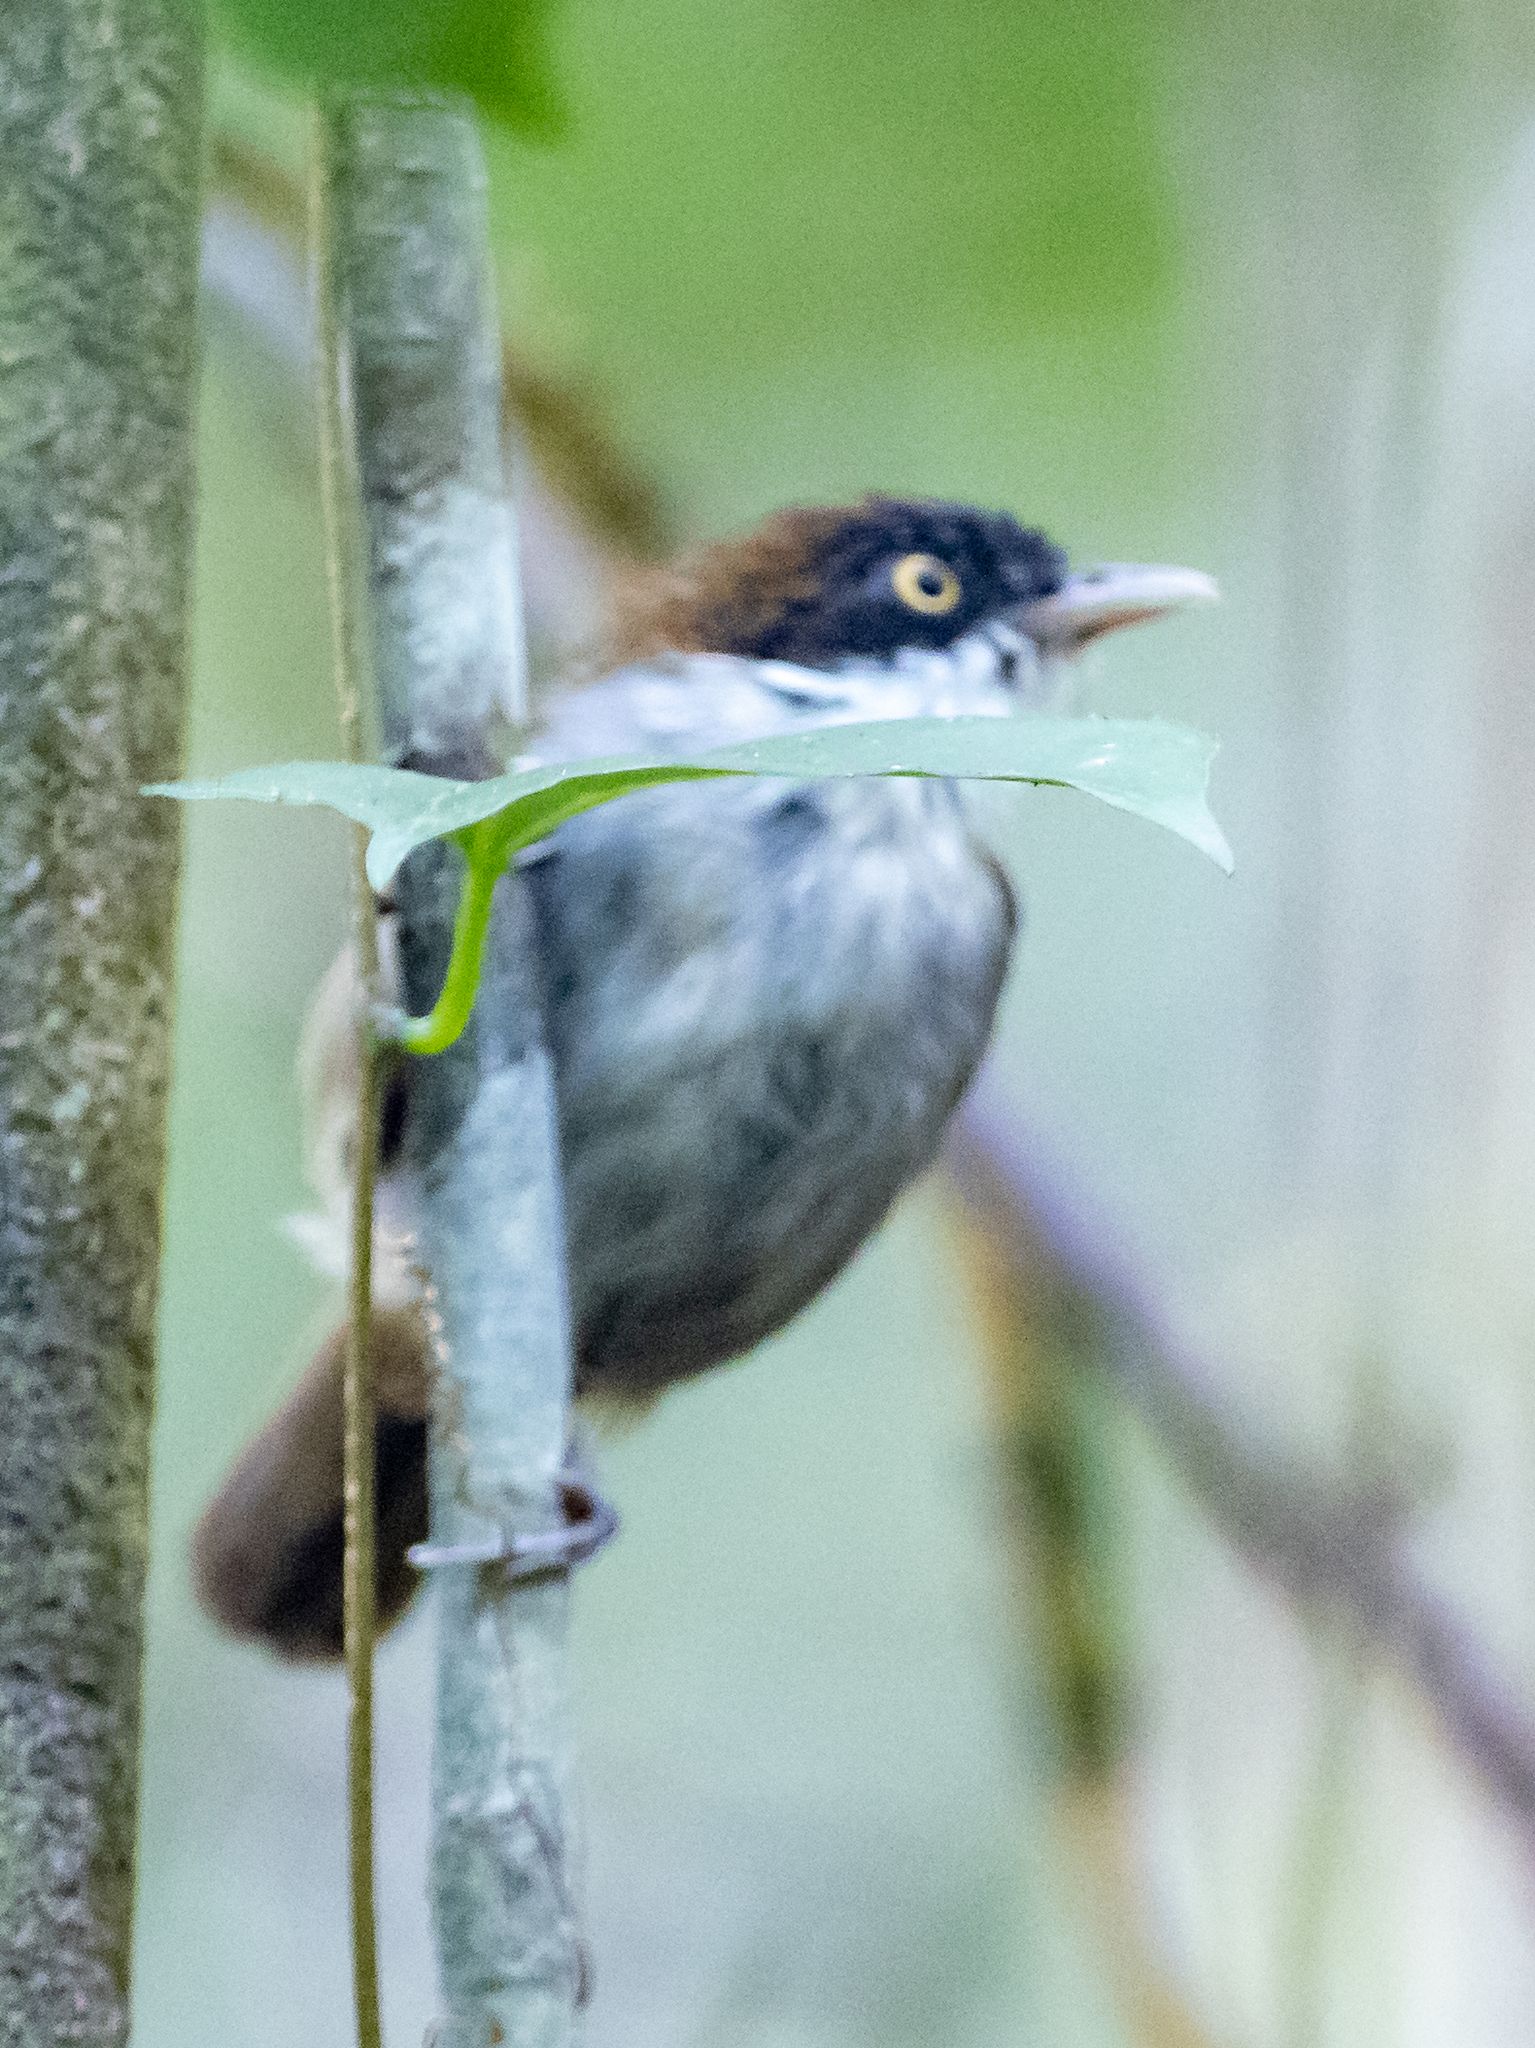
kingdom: Animalia
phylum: Chordata
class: Aves
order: Passeriformes
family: Timaliidae
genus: Rhopocichla
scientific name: Rhopocichla atriceps
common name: Dark-fronted babbler
